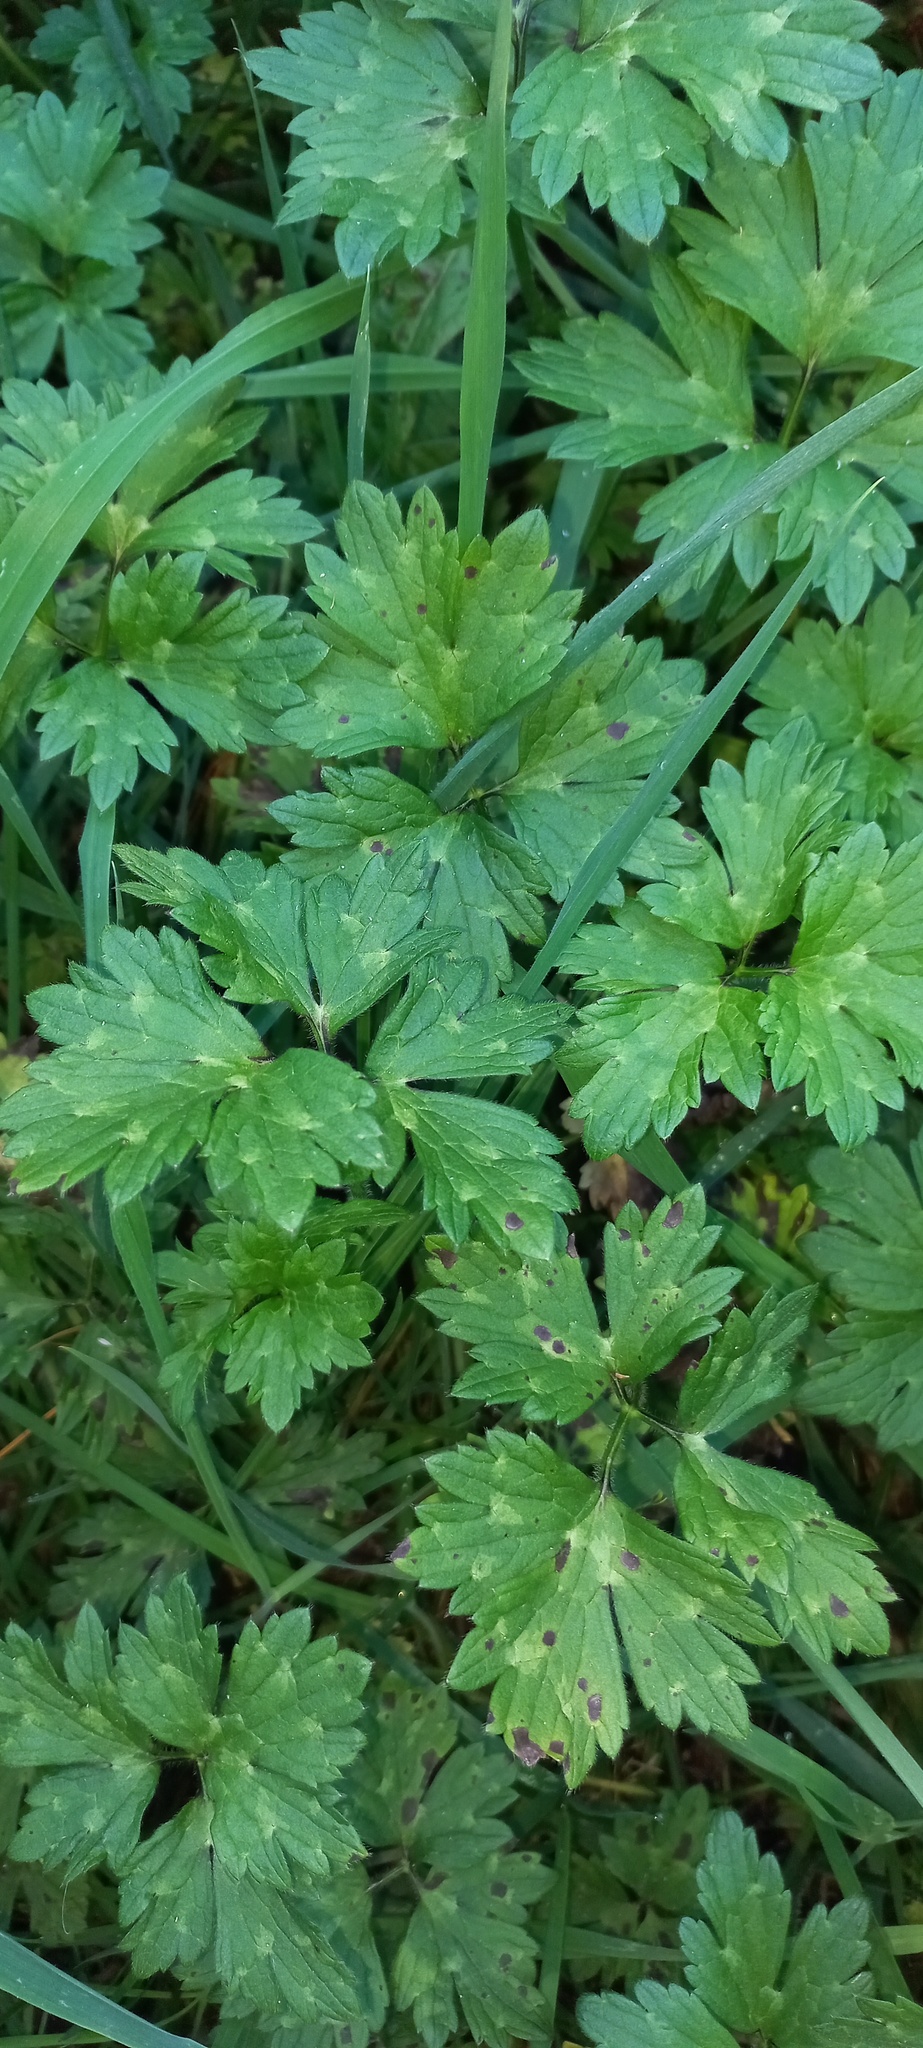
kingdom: Plantae
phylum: Tracheophyta
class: Magnoliopsida
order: Ranunculales
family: Ranunculaceae
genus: Ranunculus
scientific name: Ranunculus repens
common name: Creeping buttercup
